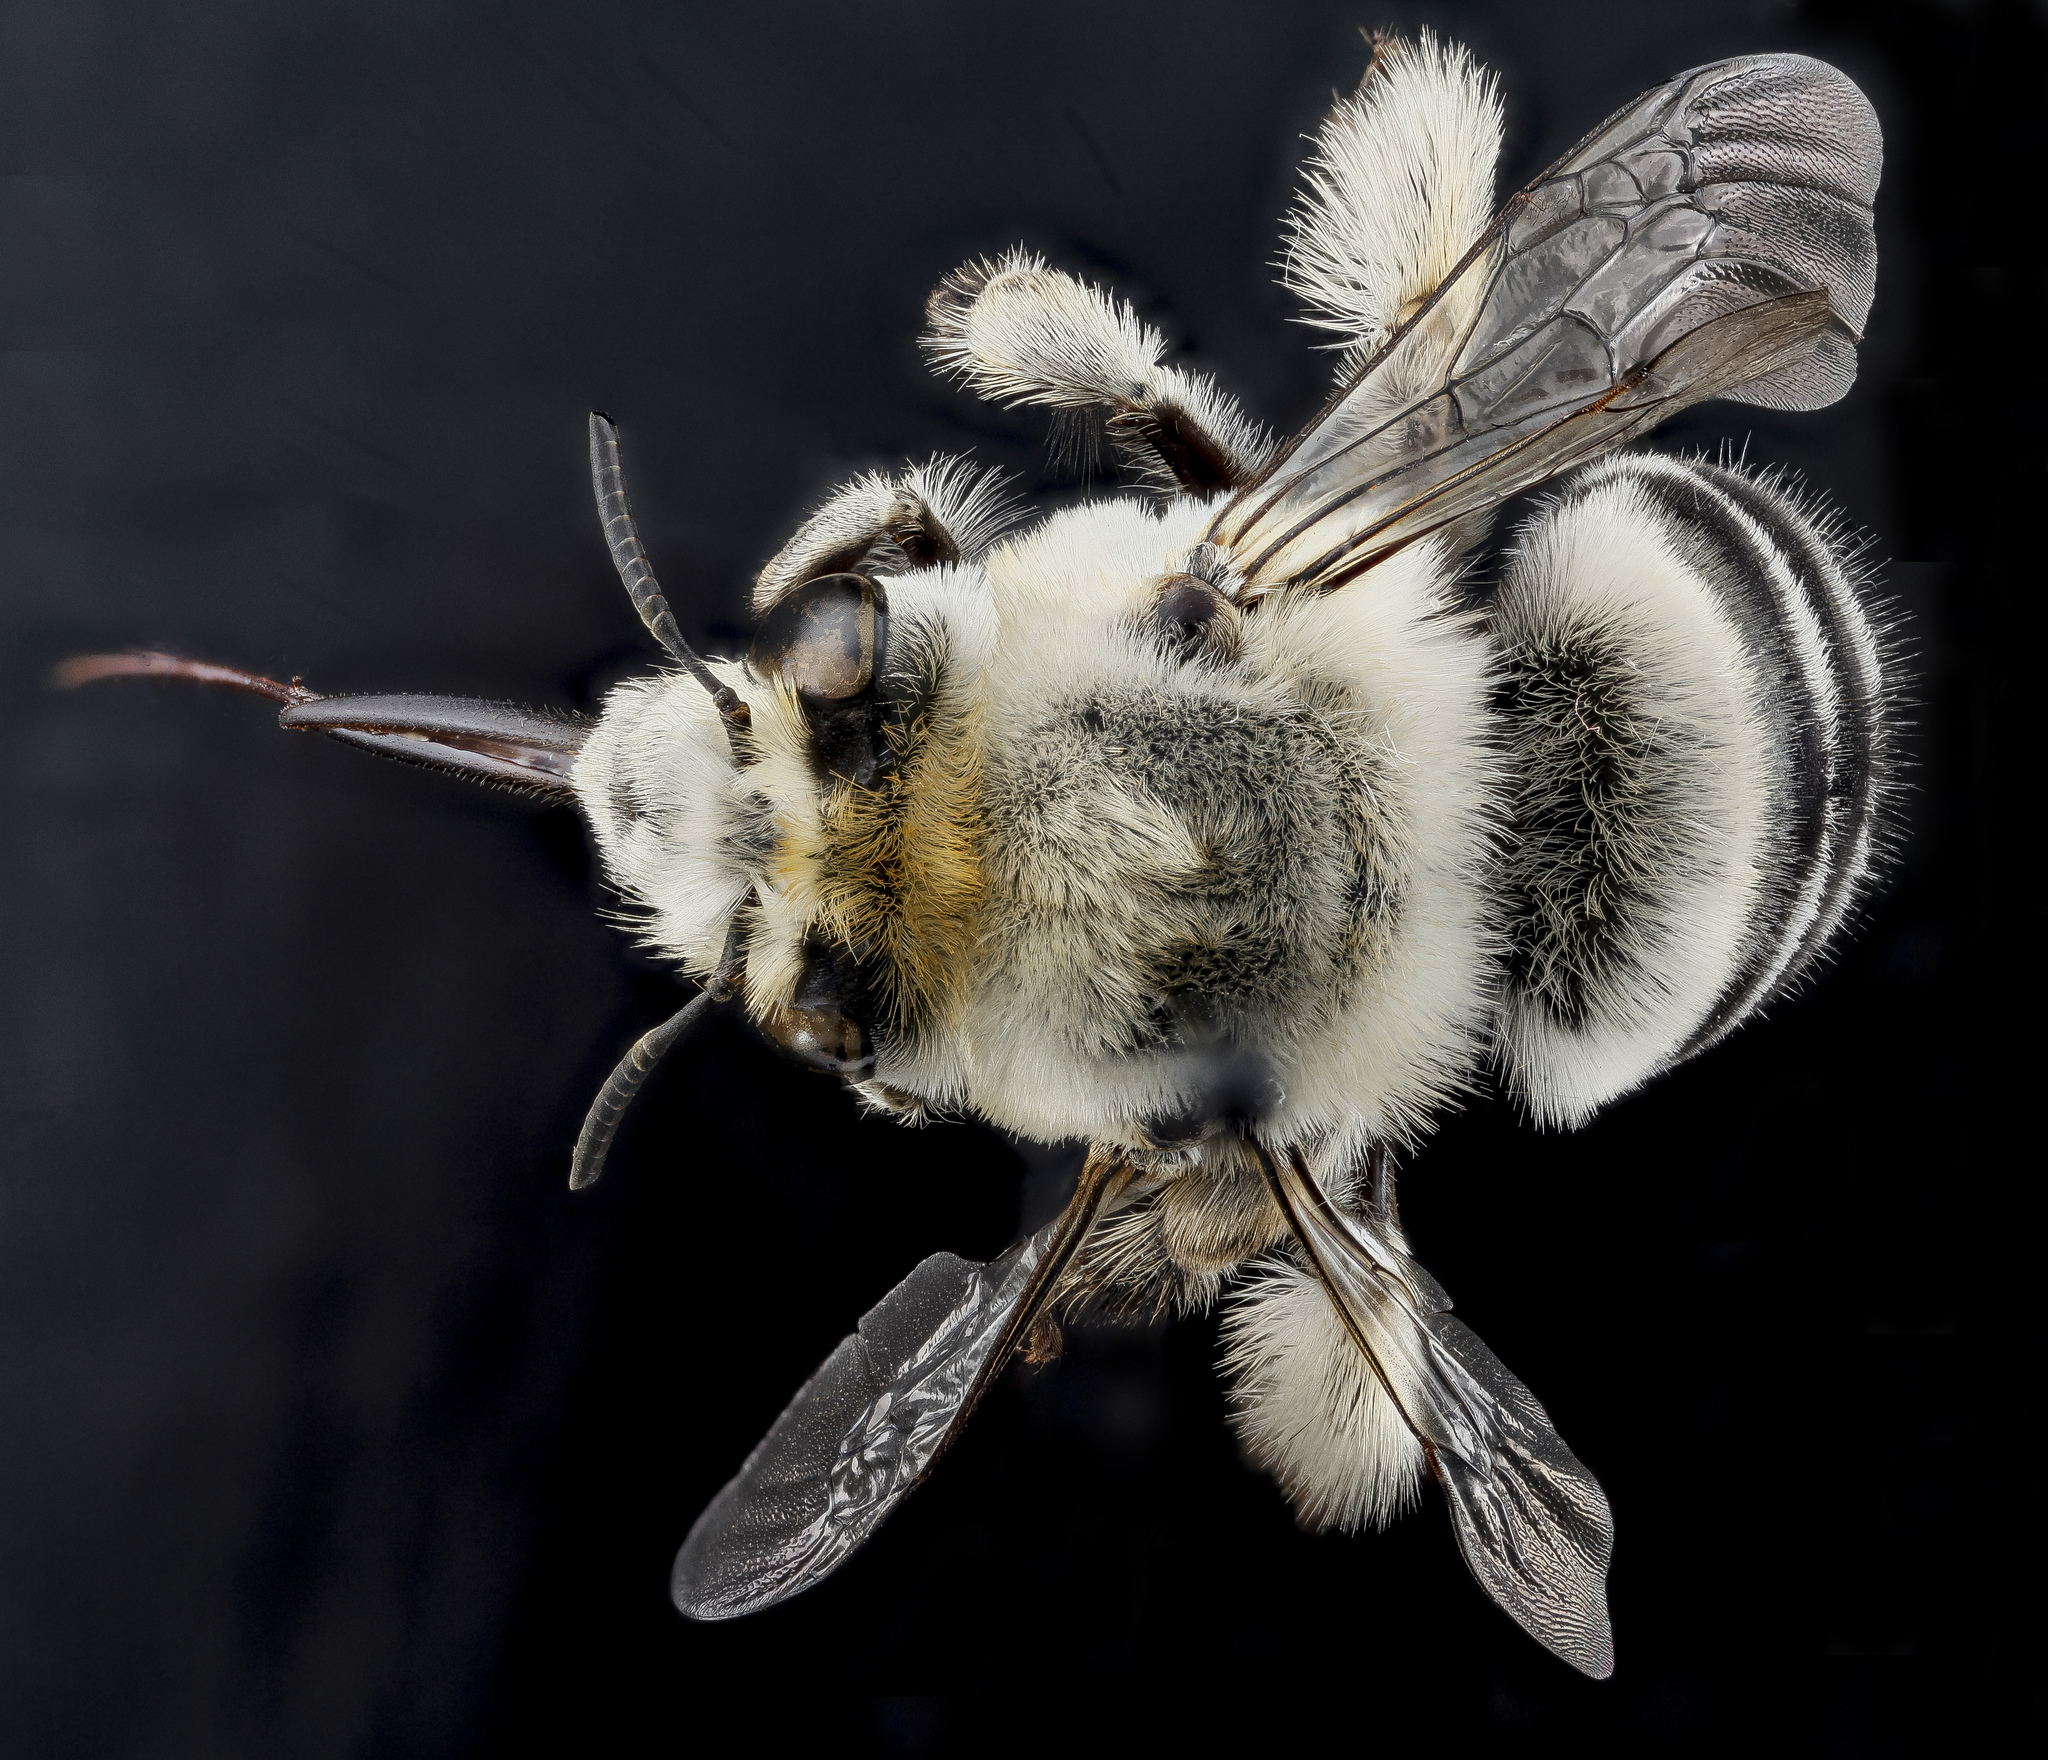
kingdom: Animalia
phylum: Arthropoda
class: Insecta
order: Hymenoptera
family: Apidae
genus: Anthophora
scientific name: Anthophora affabilis
